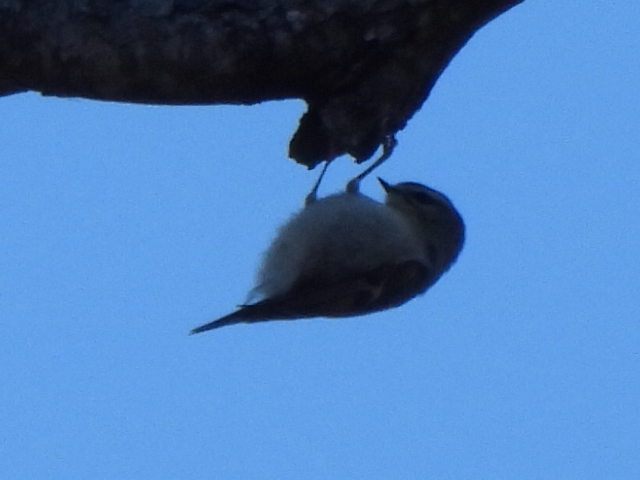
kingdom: Animalia
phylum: Chordata
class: Aves
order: Passeriformes
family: Regulidae
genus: Regulus
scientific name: Regulus satrapa
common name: Golden-crowned kinglet
